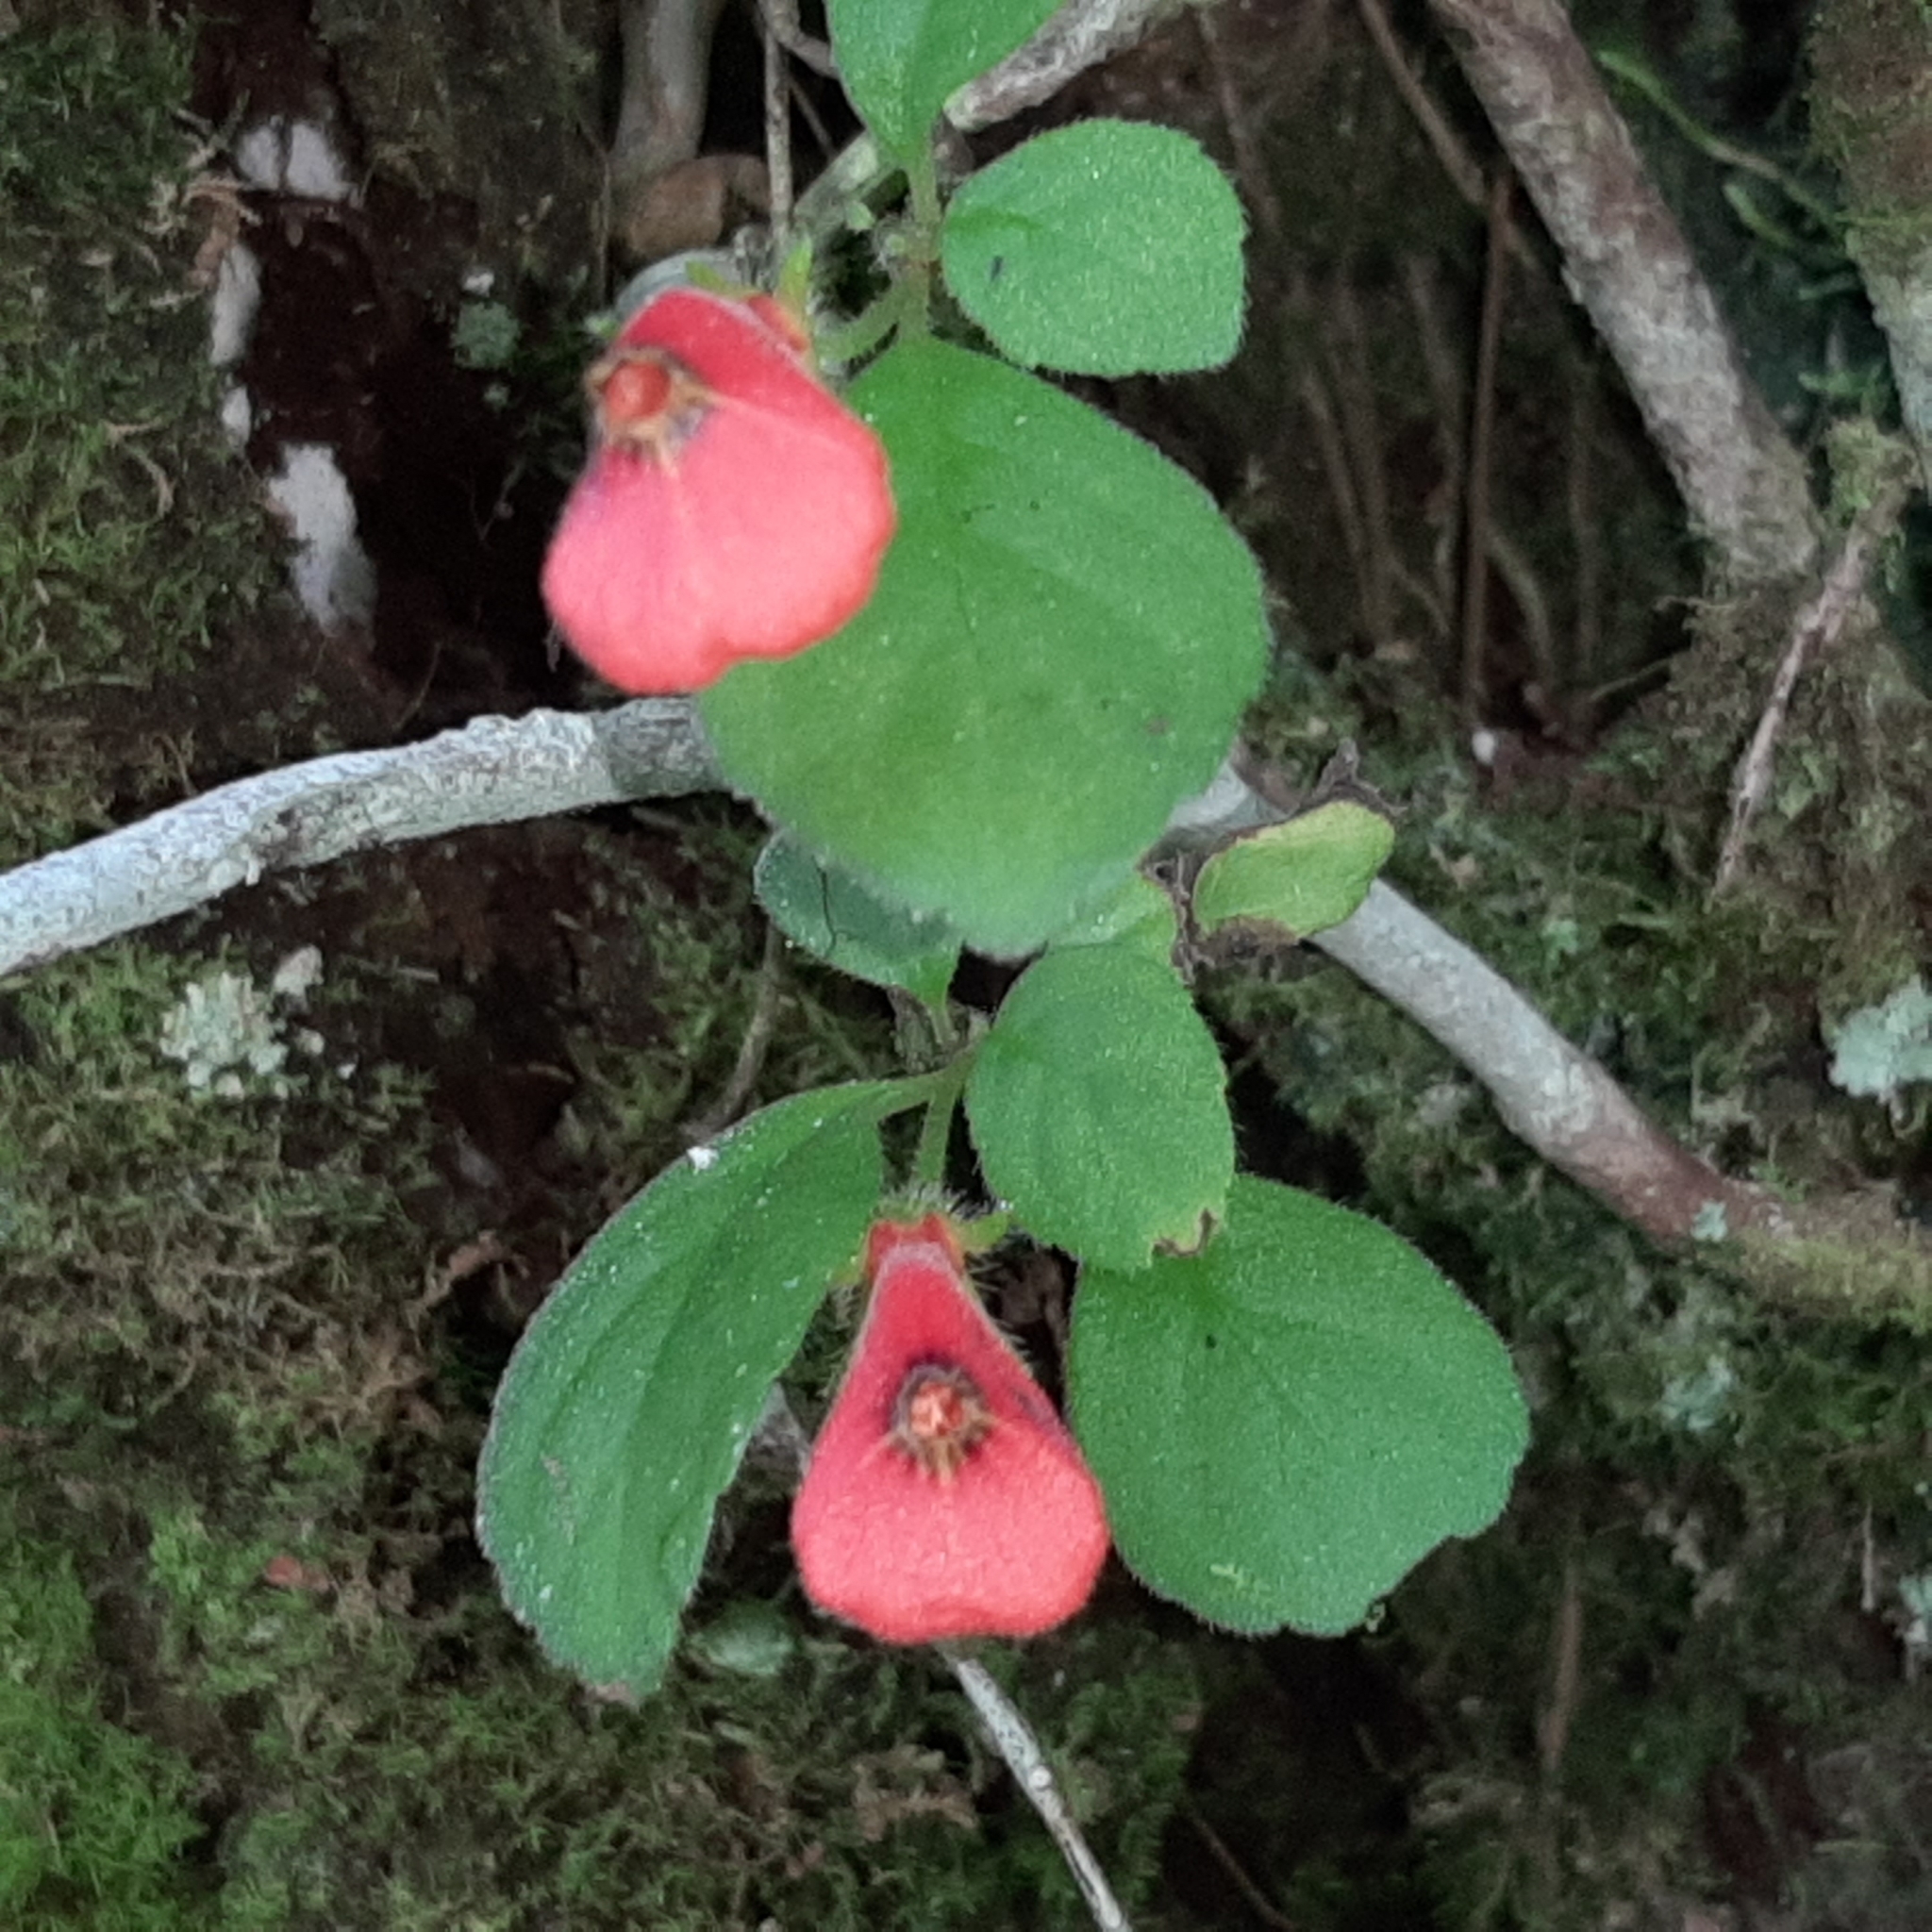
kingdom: Plantae
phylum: Tracheophyta
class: Magnoliopsida
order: Lamiales
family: Gesneriaceae
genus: Pachycaulos
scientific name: Pachycaulos nummularia
